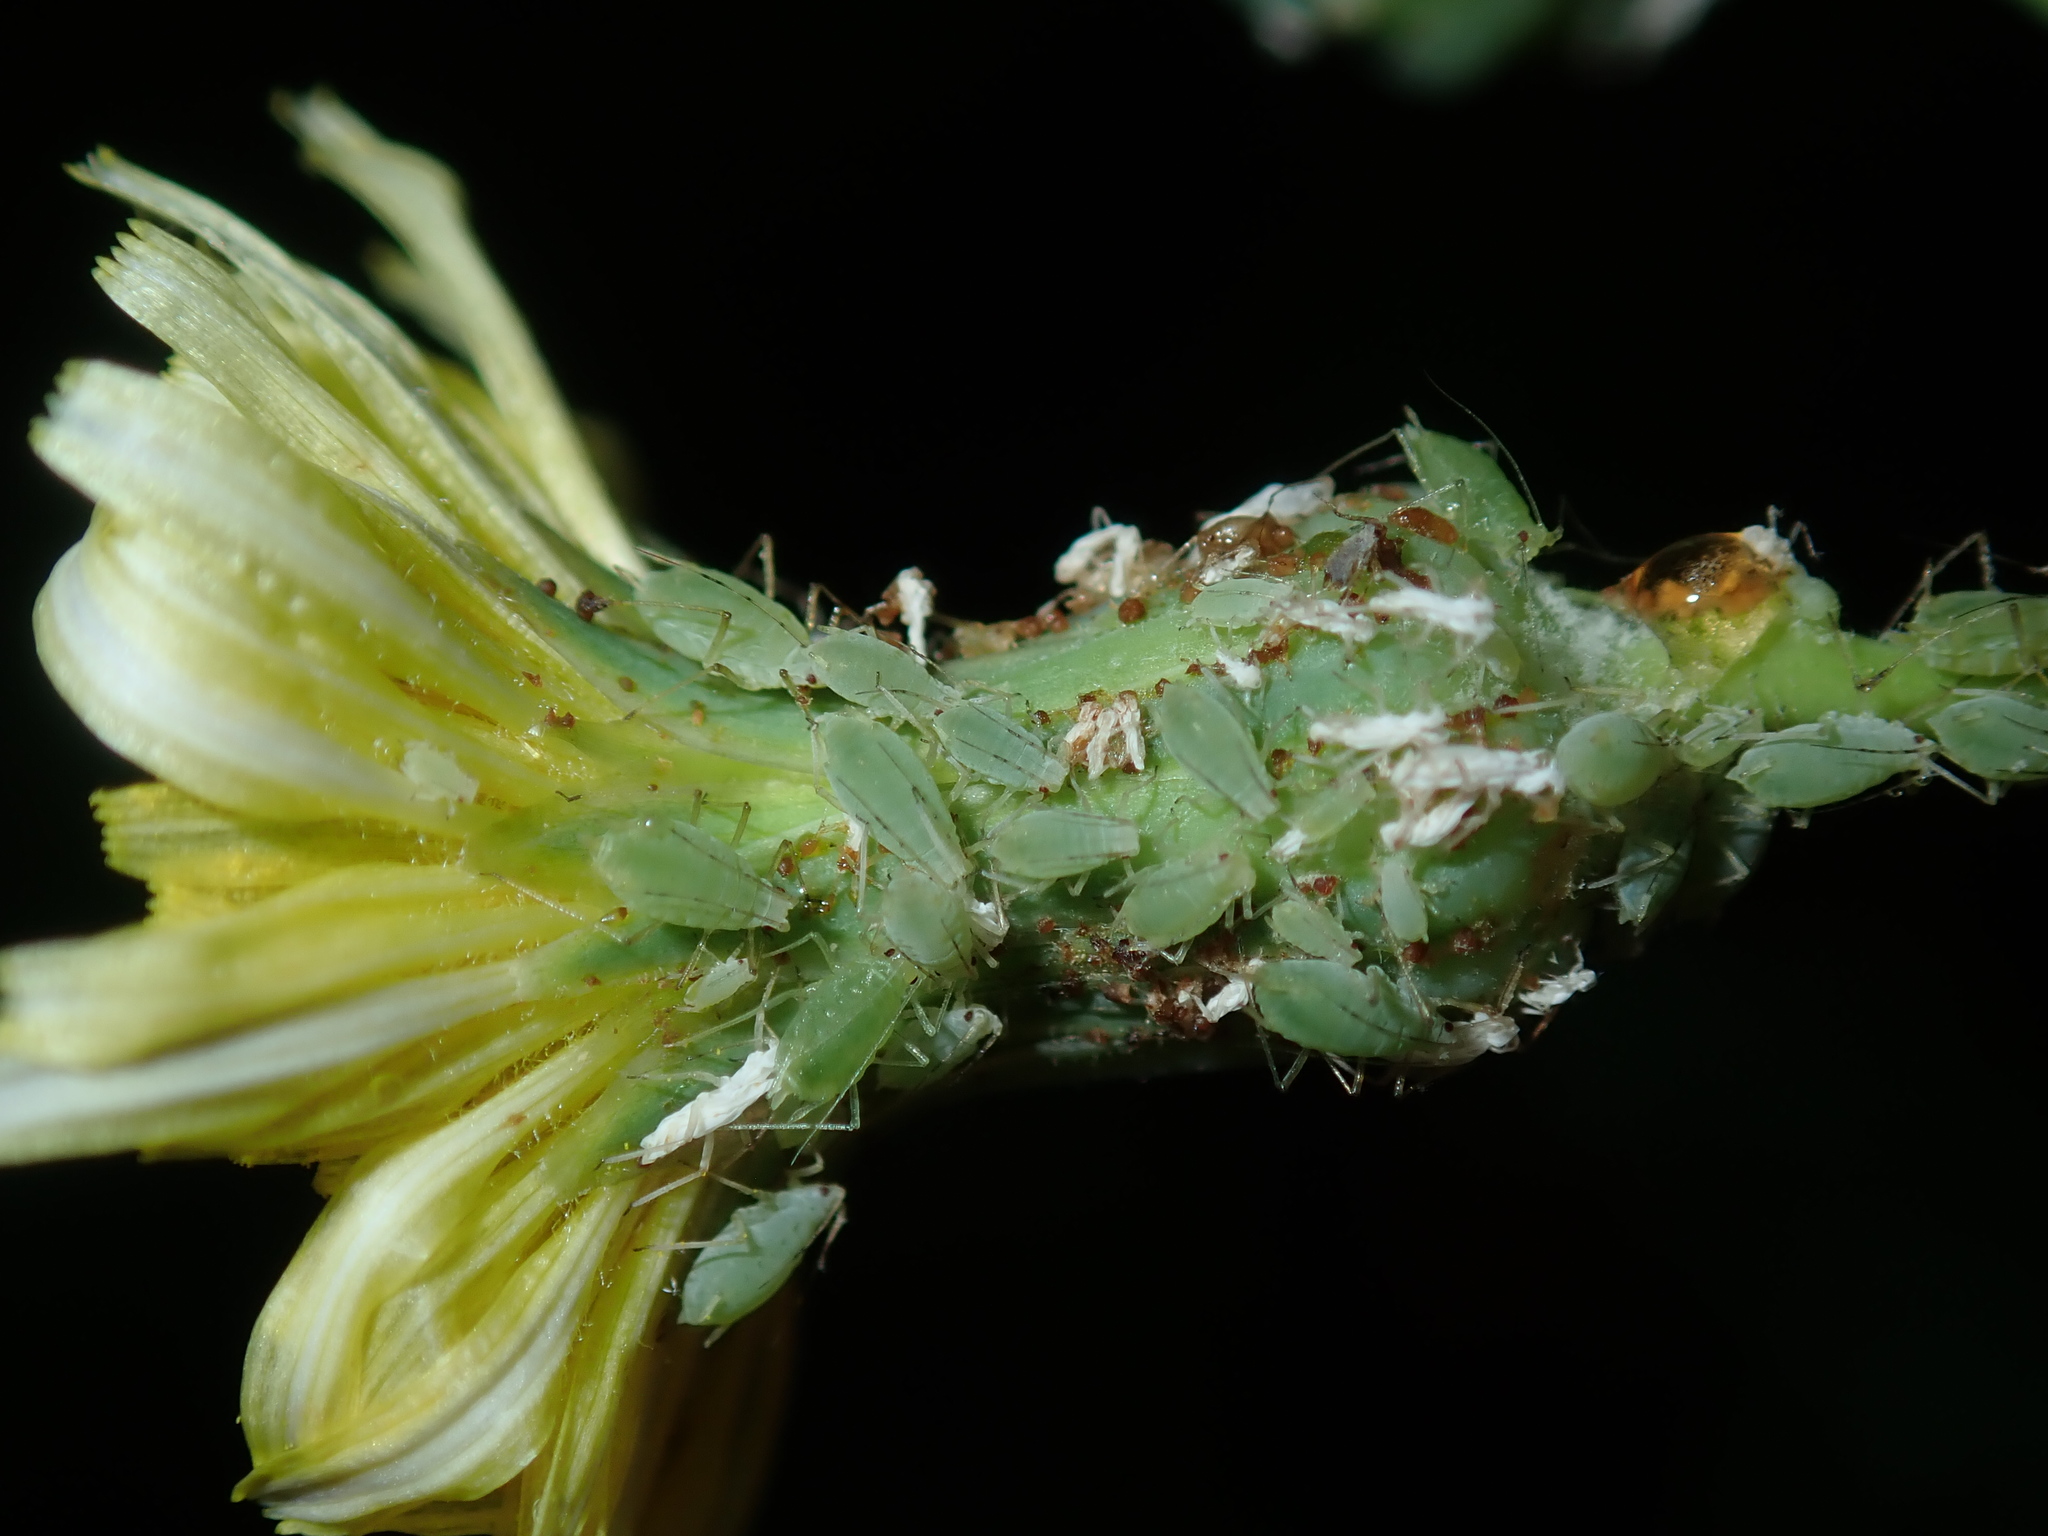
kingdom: Animalia
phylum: Arthropoda
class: Insecta
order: Hemiptera
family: Aphididae
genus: Hyperomyzus
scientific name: Hyperomyzus
